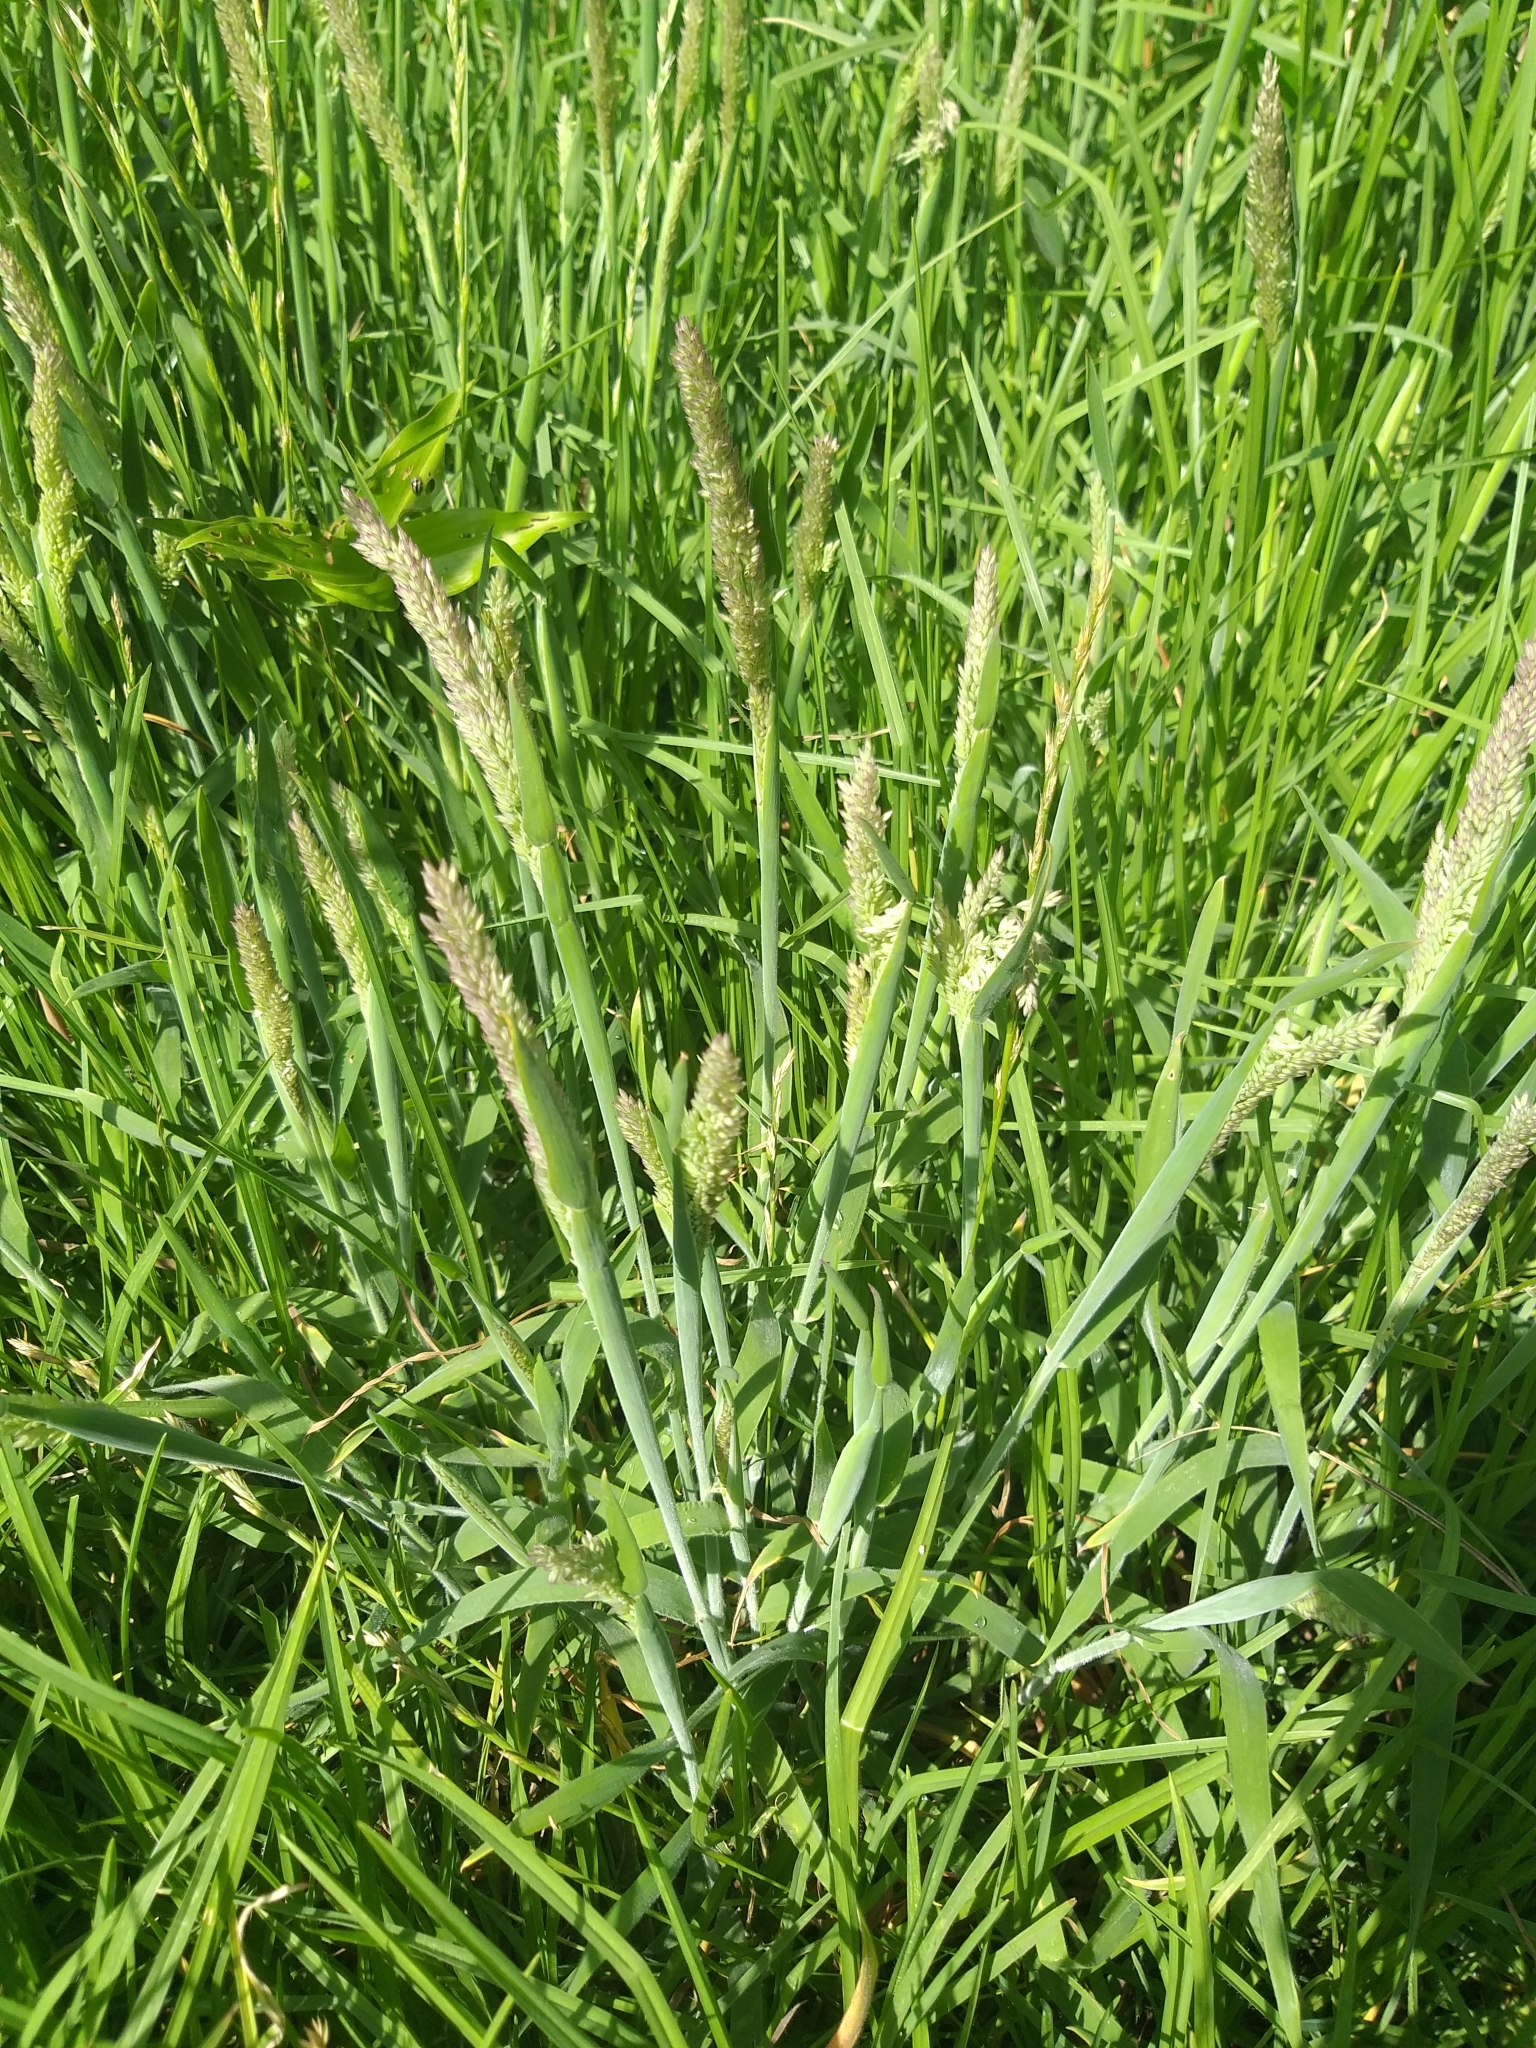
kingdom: Plantae
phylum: Tracheophyta
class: Liliopsida
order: Poales
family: Poaceae
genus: Holcus
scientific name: Holcus lanatus
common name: Yorkshire-fog
